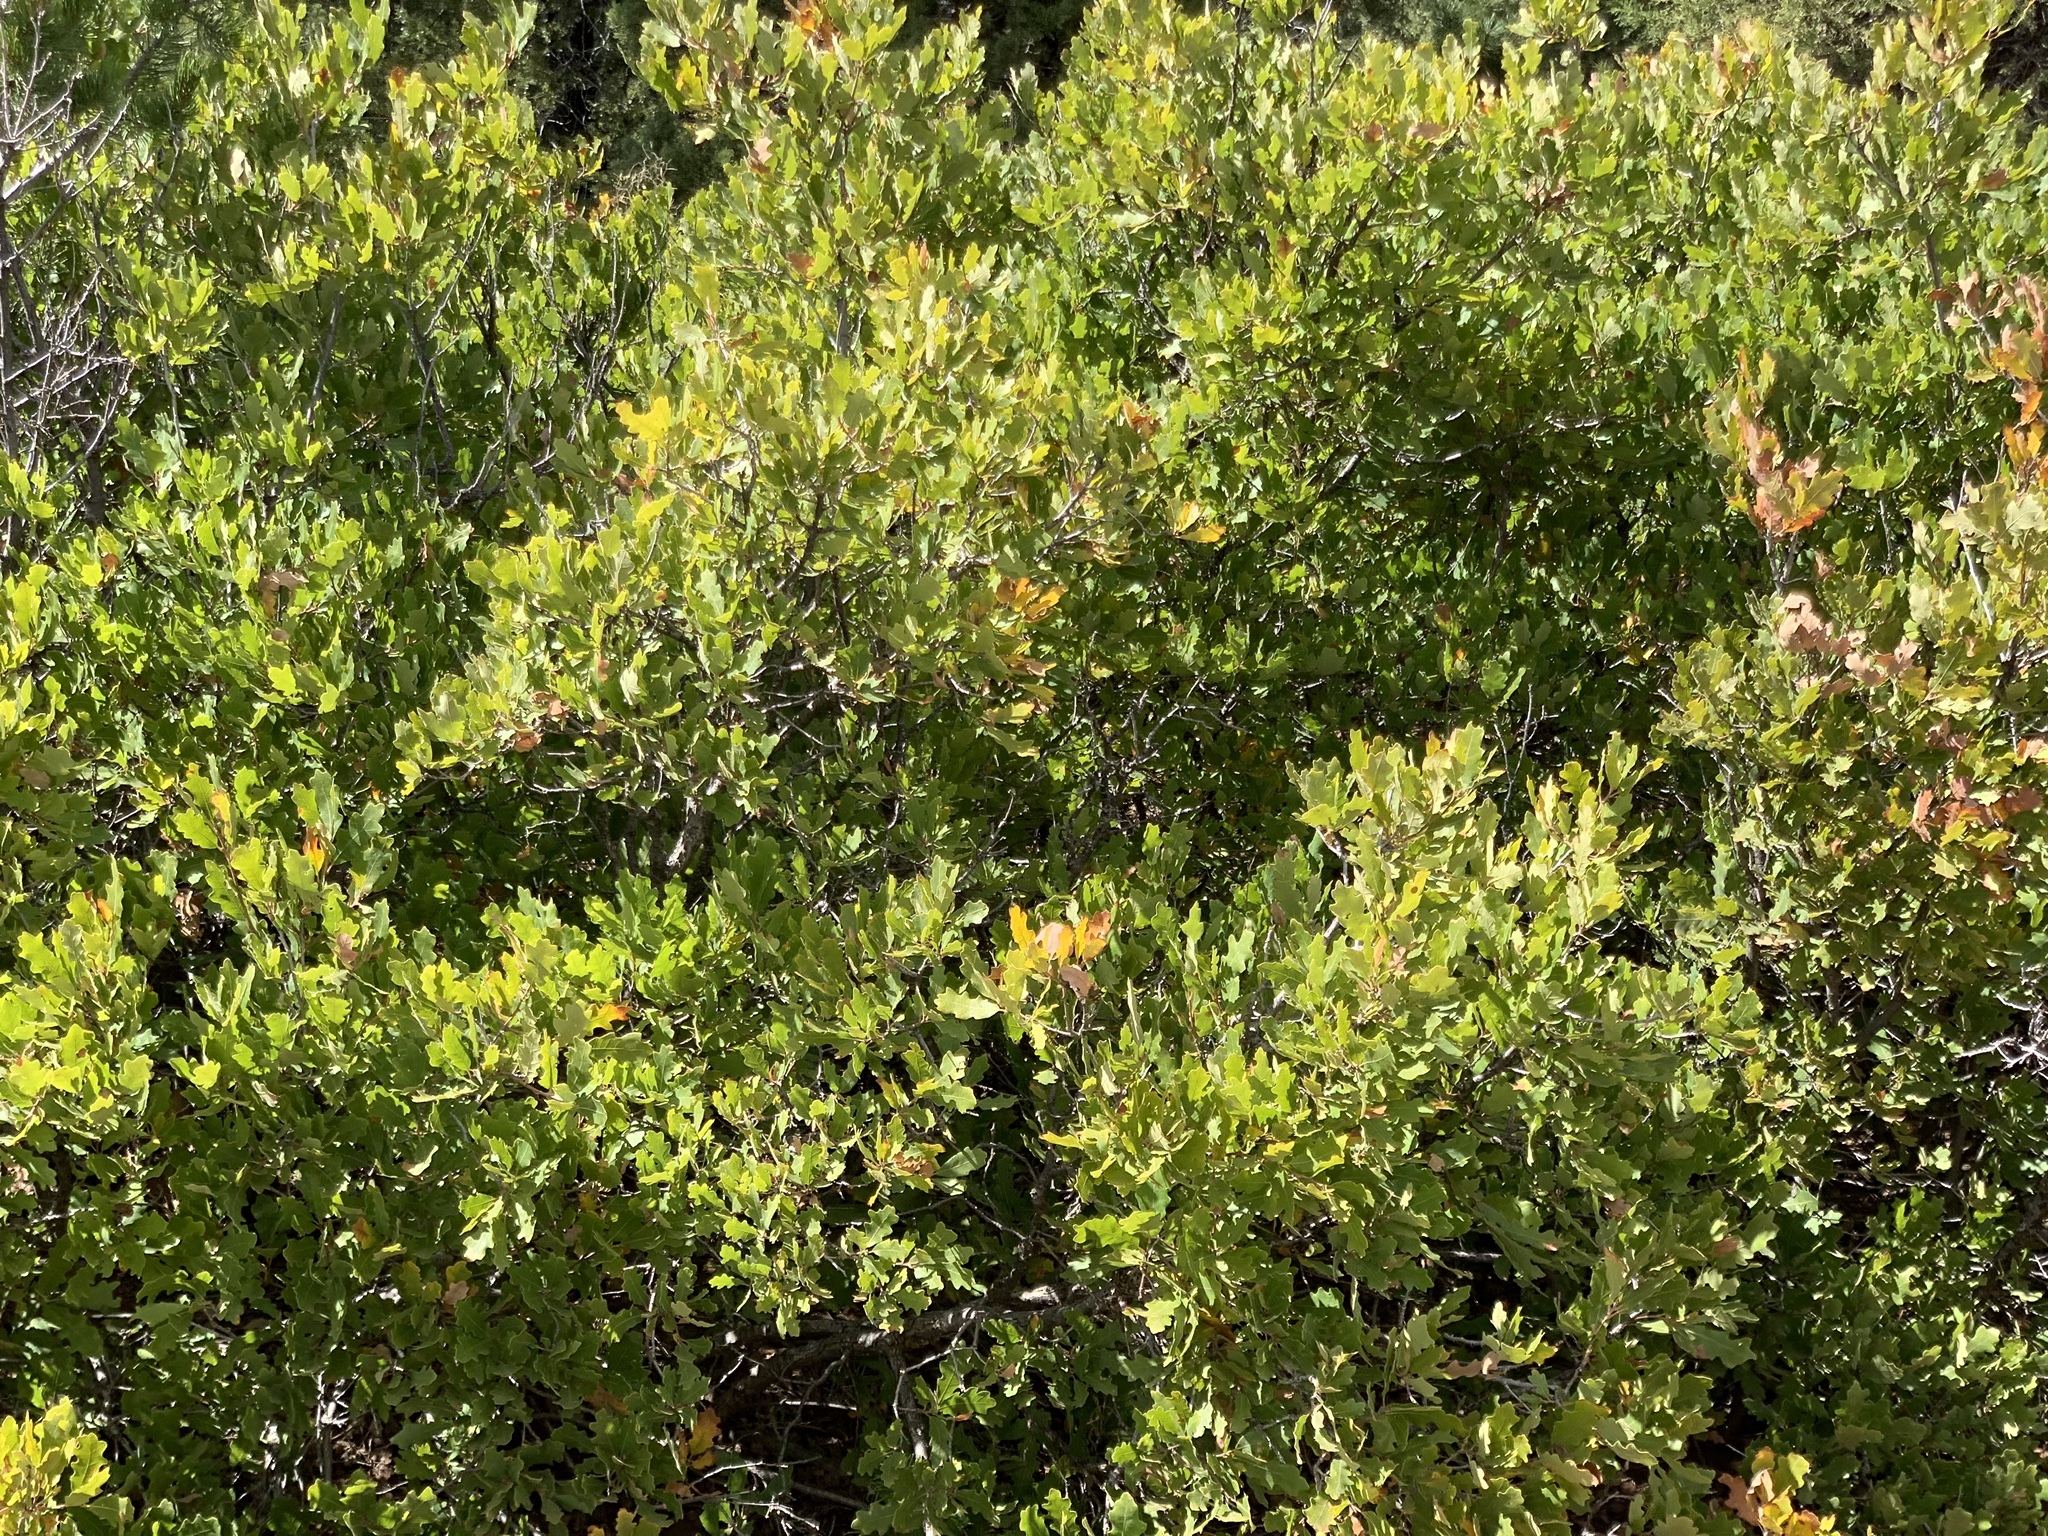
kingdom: Plantae
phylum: Tracheophyta
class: Magnoliopsida
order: Fagales
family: Fagaceae
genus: Quercus
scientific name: Quercus undulata
